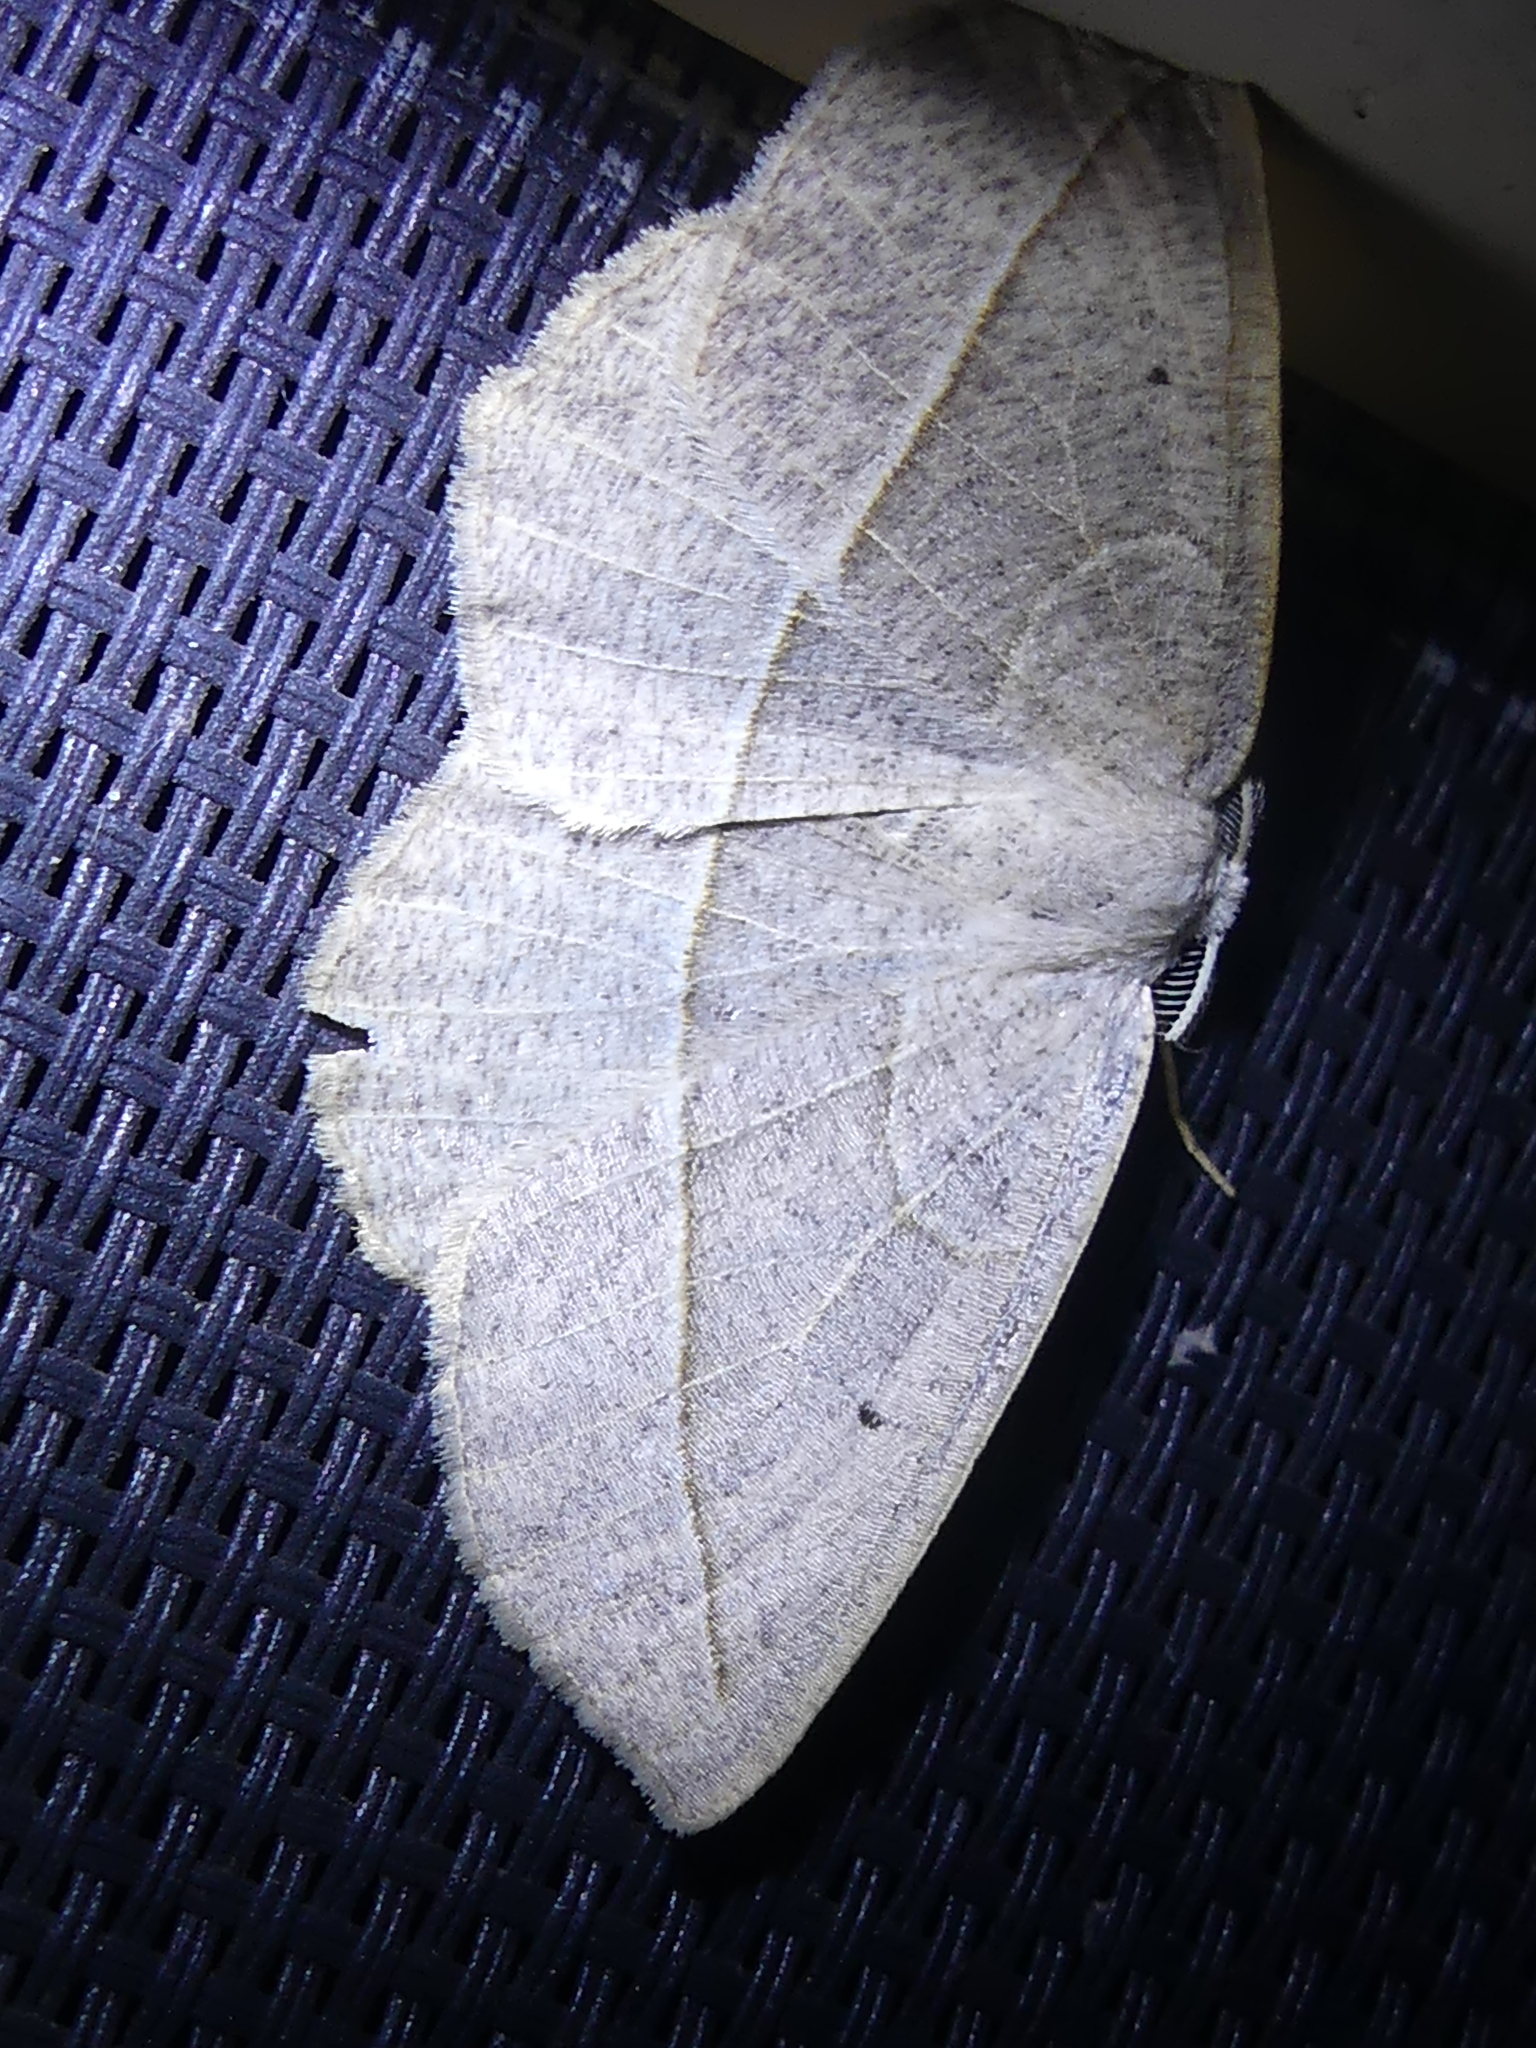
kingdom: Animalia
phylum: Arthropoda
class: Insecta
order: Lepidoptera
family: Geometridae
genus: Eusarca
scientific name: Eusarca confusaria
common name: Confused eusarca
